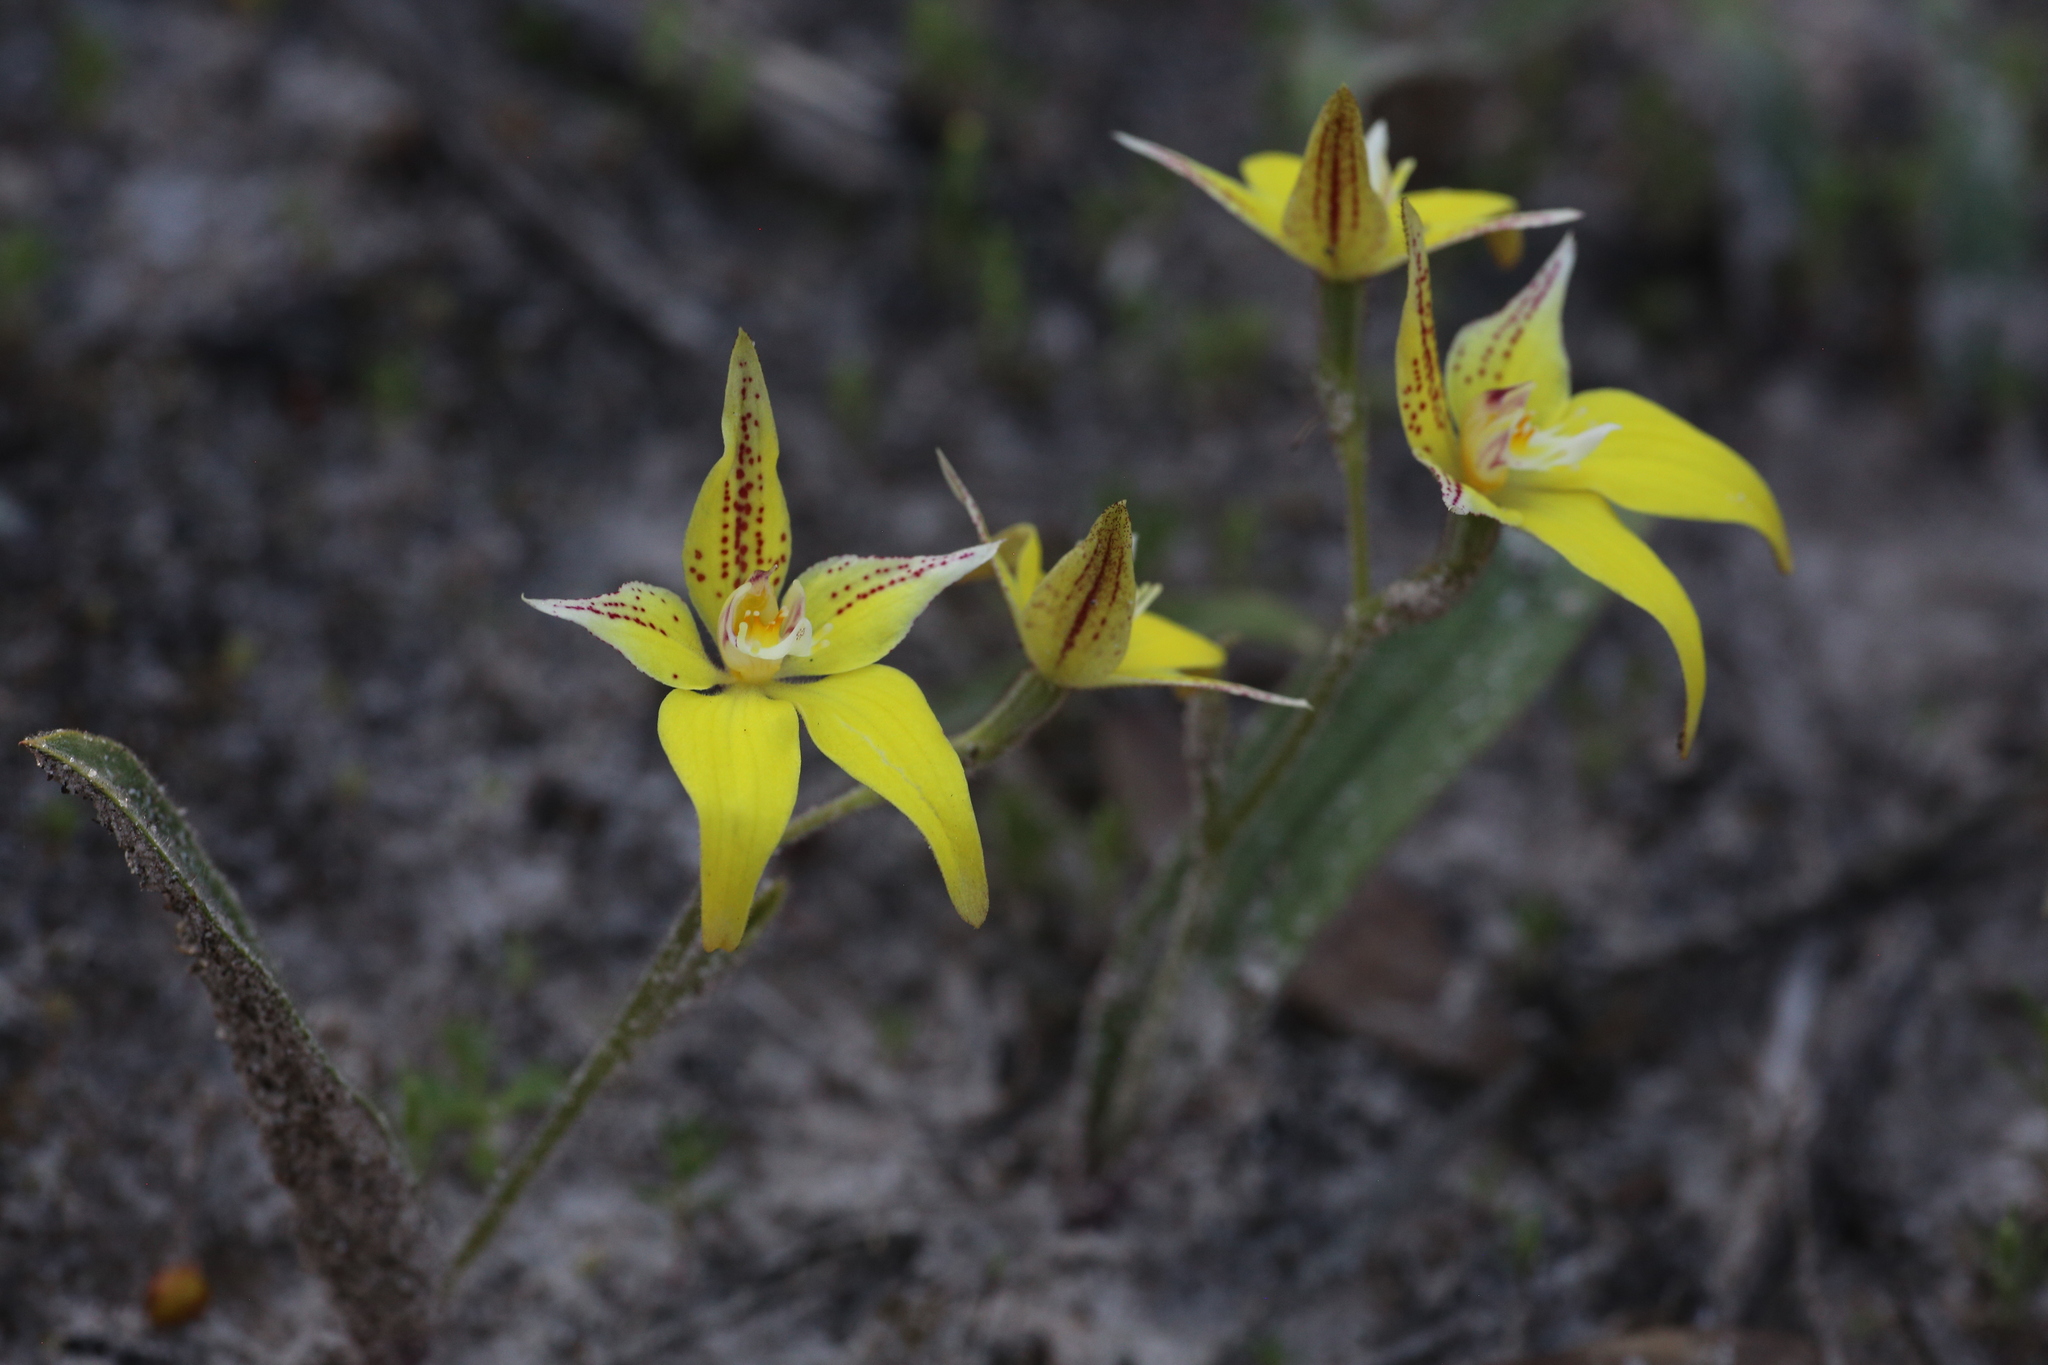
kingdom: Plantae
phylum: Tracheophyta
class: Liliopsida
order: Asparagales
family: Orchidaceae
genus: Caladenia
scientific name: Caladenia flava
